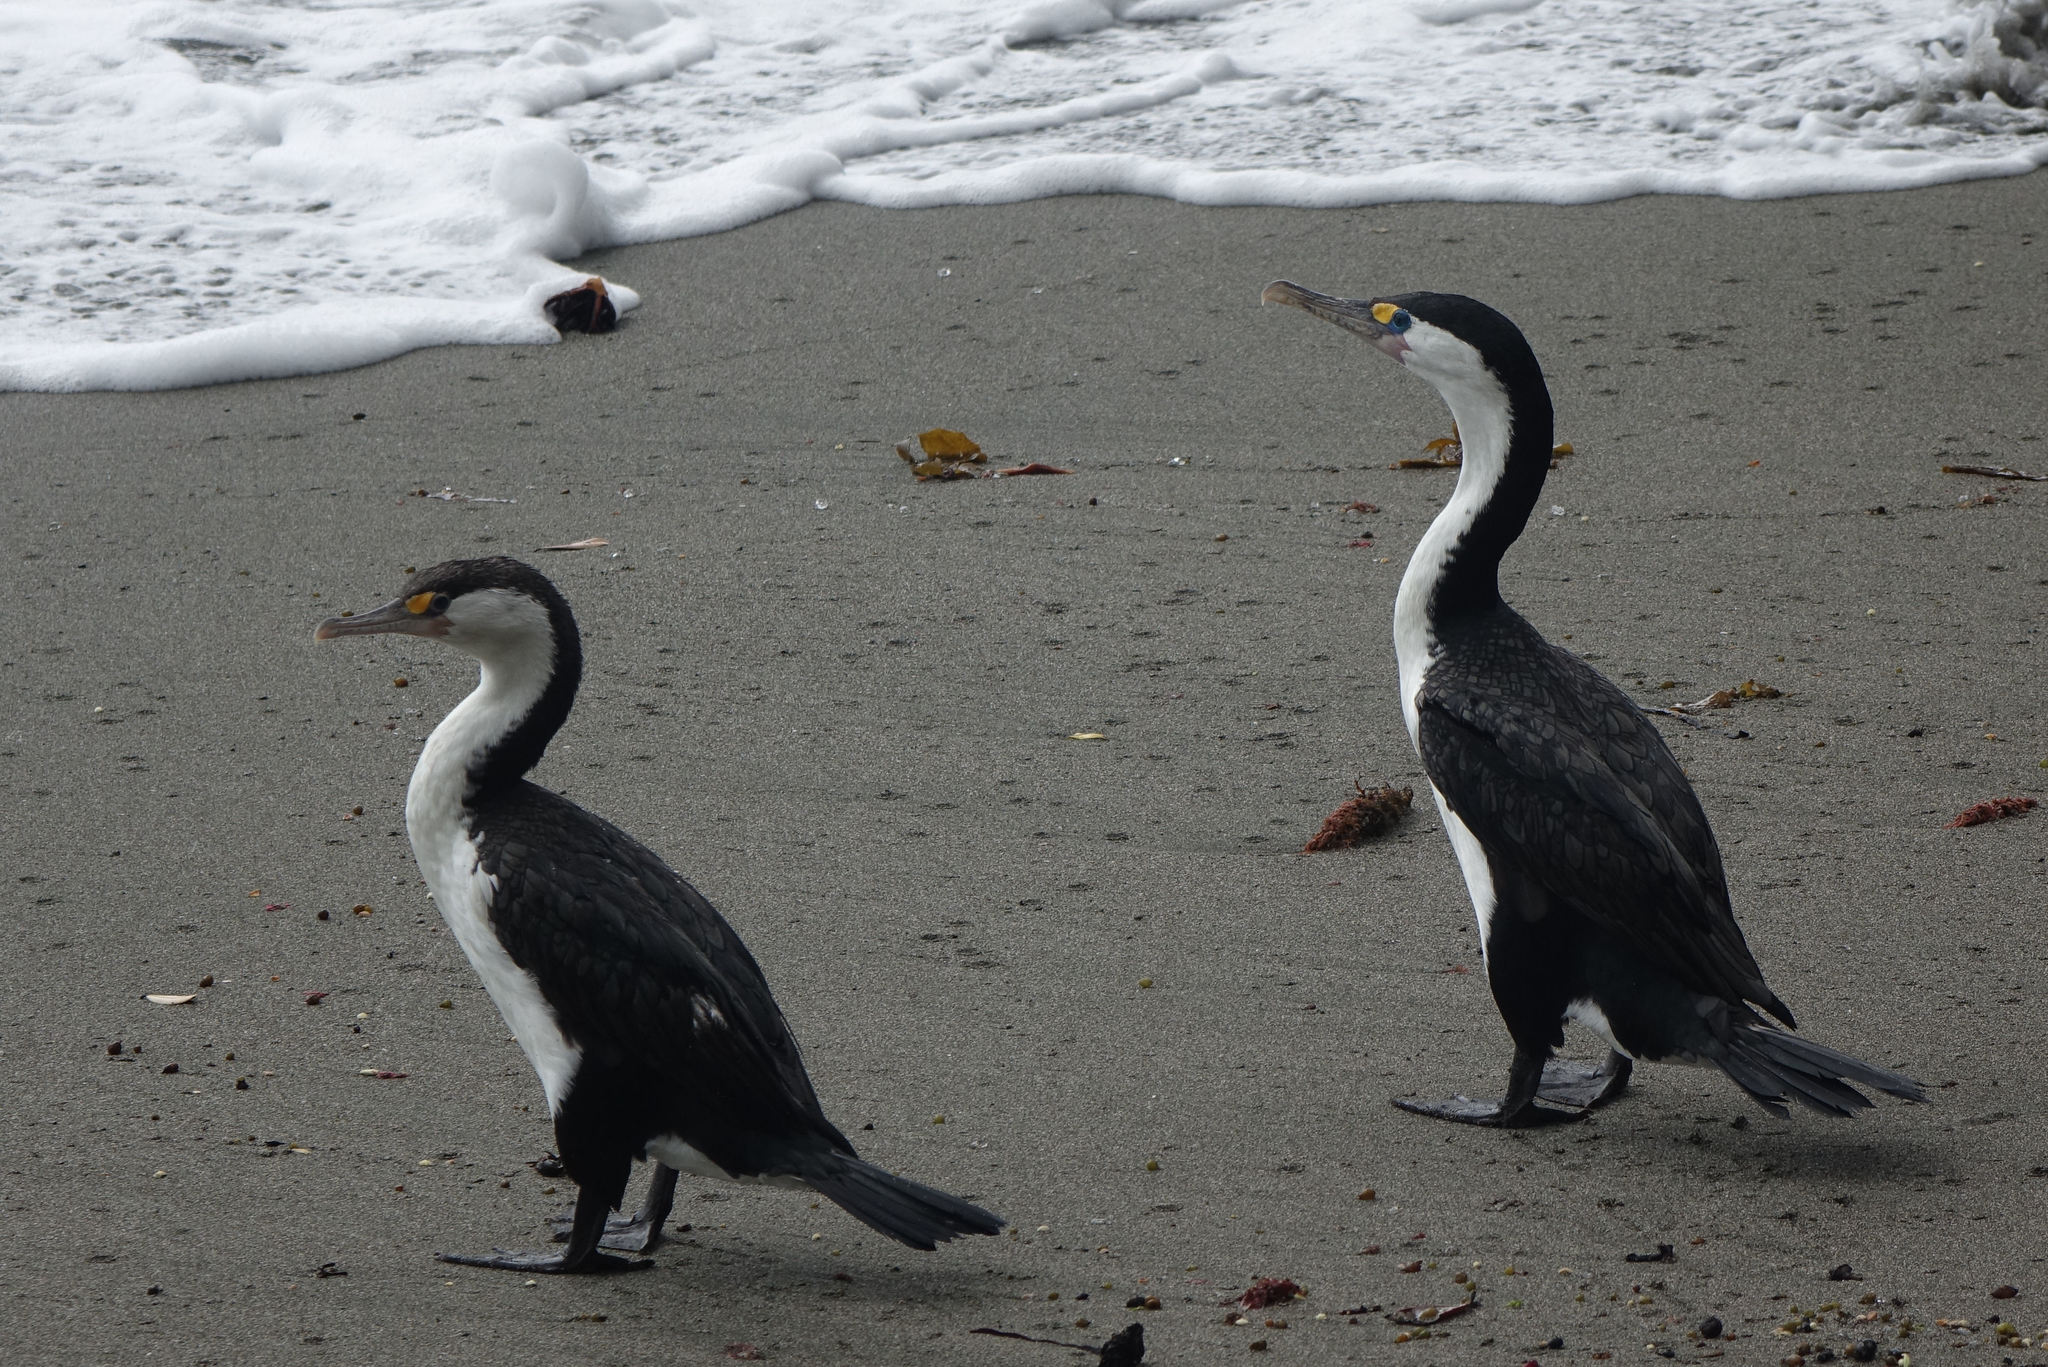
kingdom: Animalia
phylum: Chordata
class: Aves
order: Suliformes
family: Phalacrocoracidae
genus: Phalacrocorax
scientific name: Phalacrocorax varius
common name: Pied cormorant
